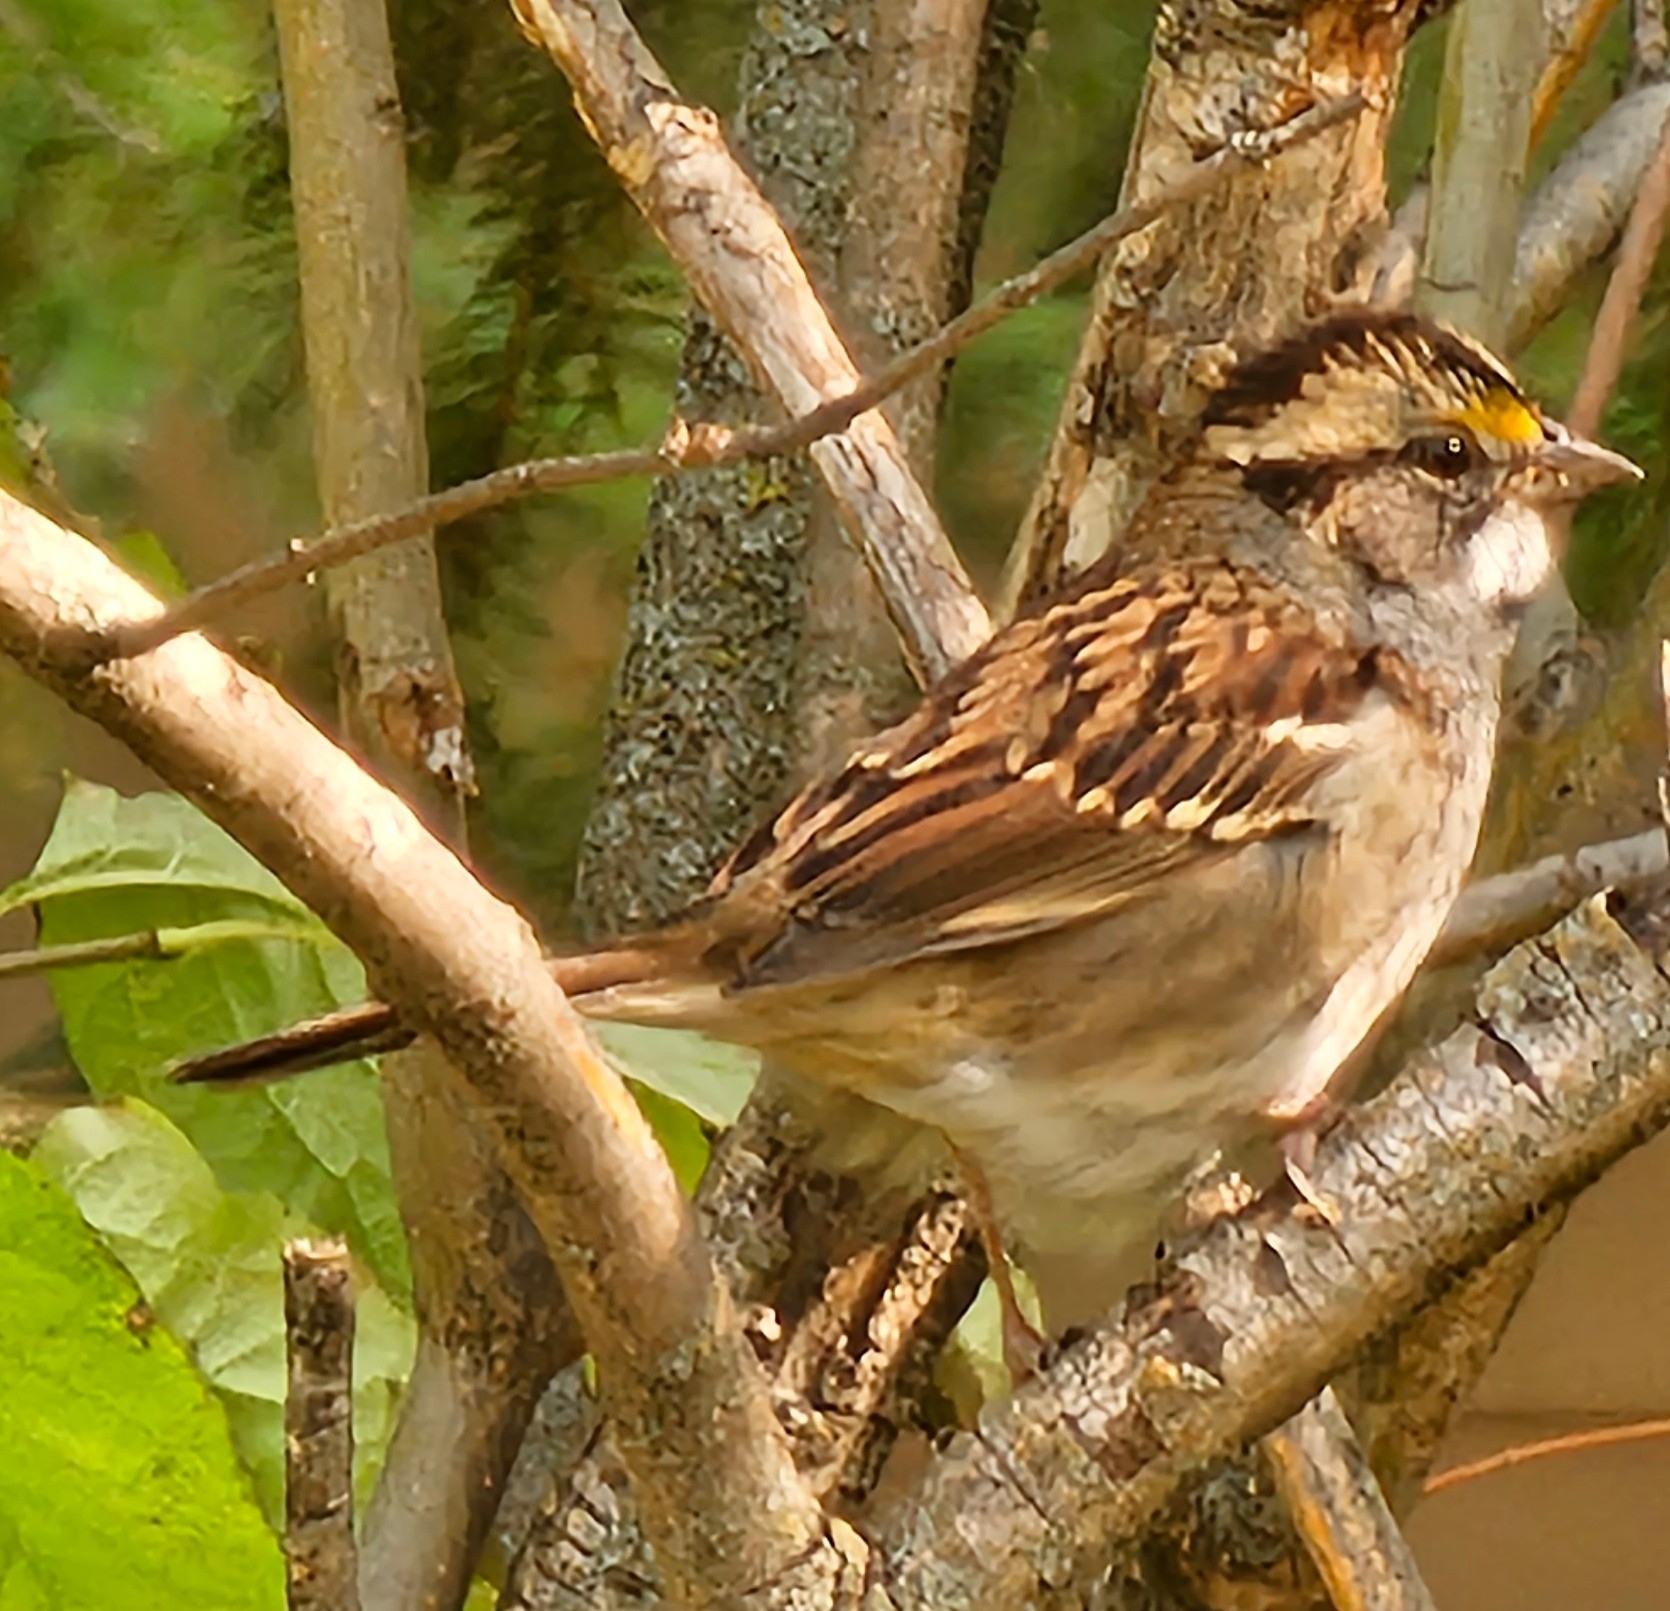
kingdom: Animalia
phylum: Chordata
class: Aves
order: Passeriformes
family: Passerellidae
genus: Zonotrichia
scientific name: Zonotrichia albicollis
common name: White-throated sparrow
